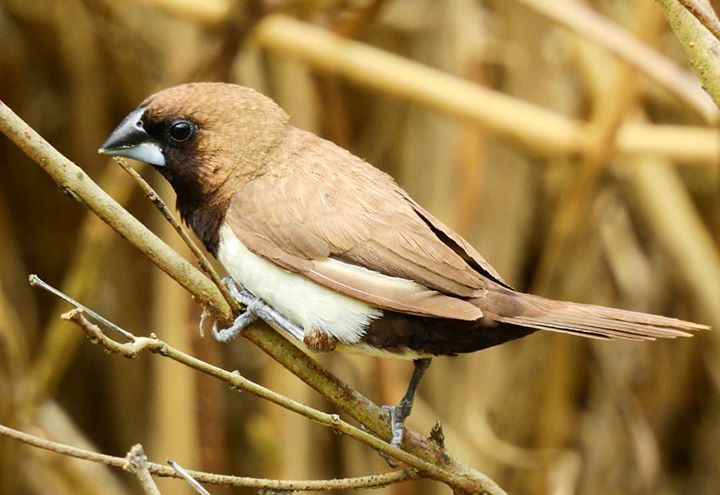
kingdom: Animalia
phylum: Chordata
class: Aves
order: Passeriformes
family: Estrildidae
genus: Lonchura
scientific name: Lonchura leucogastroides
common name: Javan munia
